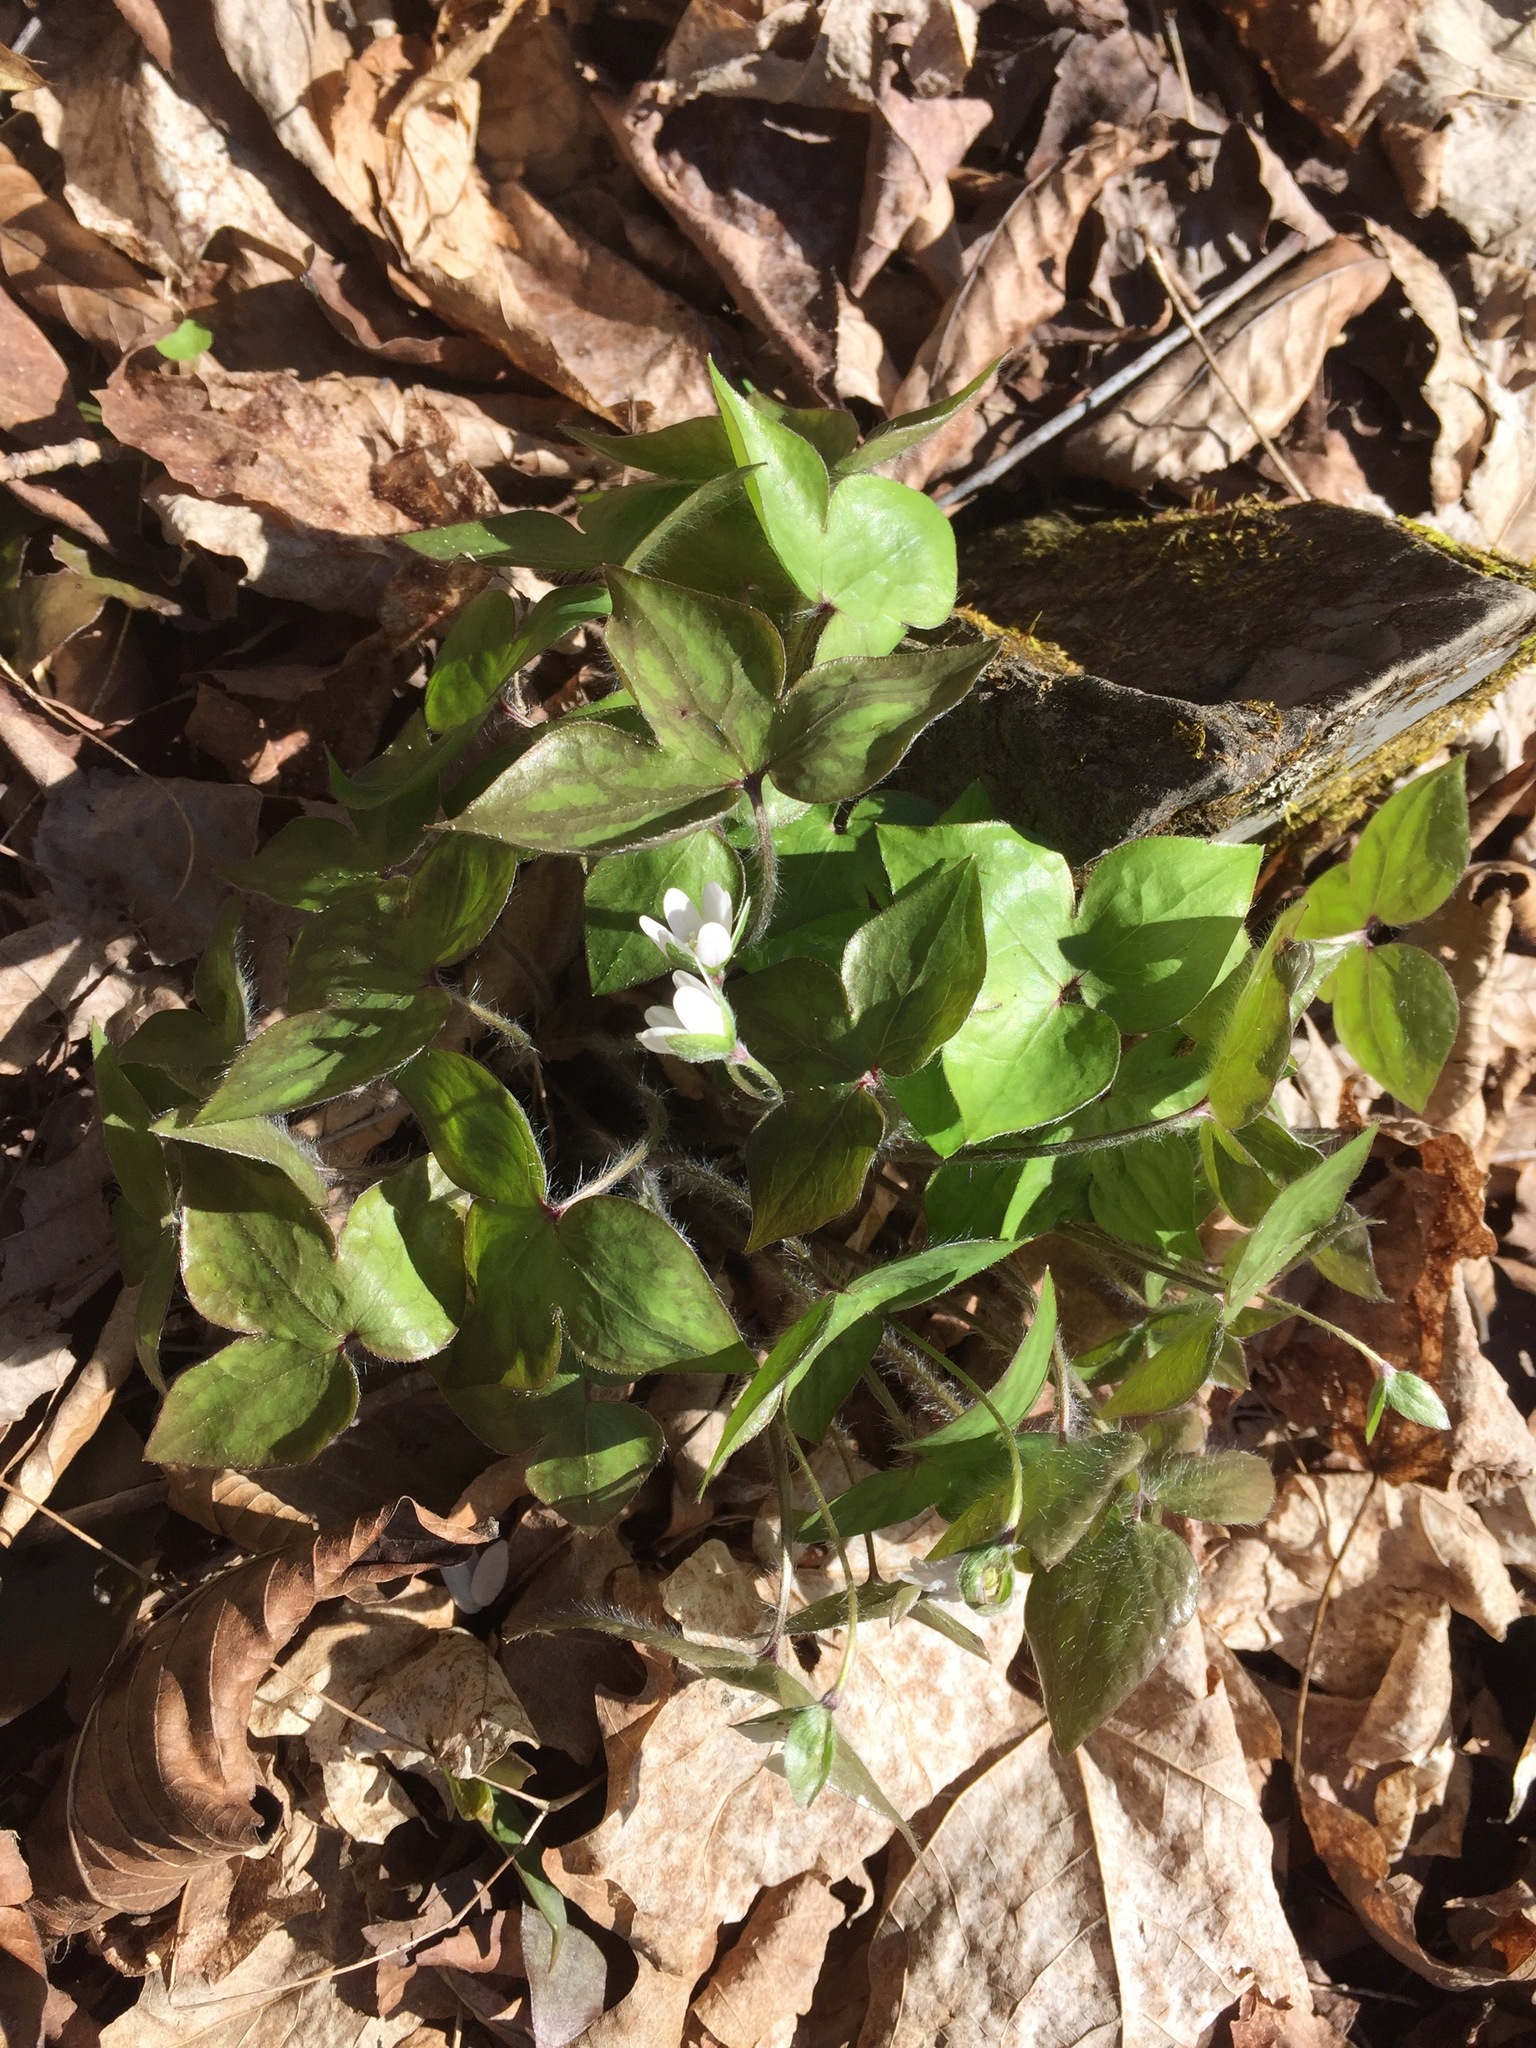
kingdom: Plantae
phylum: Tracheophyta
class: Magnoliopsida
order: Ranunculales
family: Ranunculaceae
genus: Hepatica
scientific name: Hepatica acutiloba
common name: Sharp-lobed hepatica
